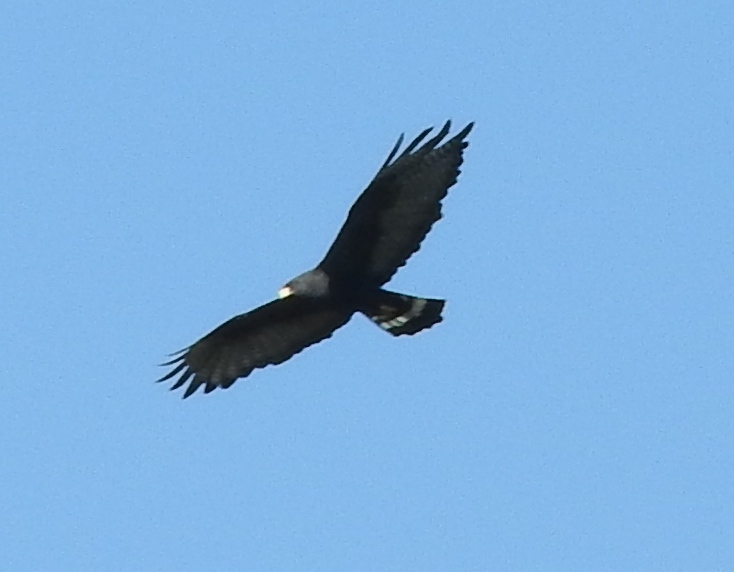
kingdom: Animalia
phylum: Chordata
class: Aves
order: Accipitriformes
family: Accipitridae
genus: Buteo
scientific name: Buteo albonotatus
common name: Zone-tailed hawk
